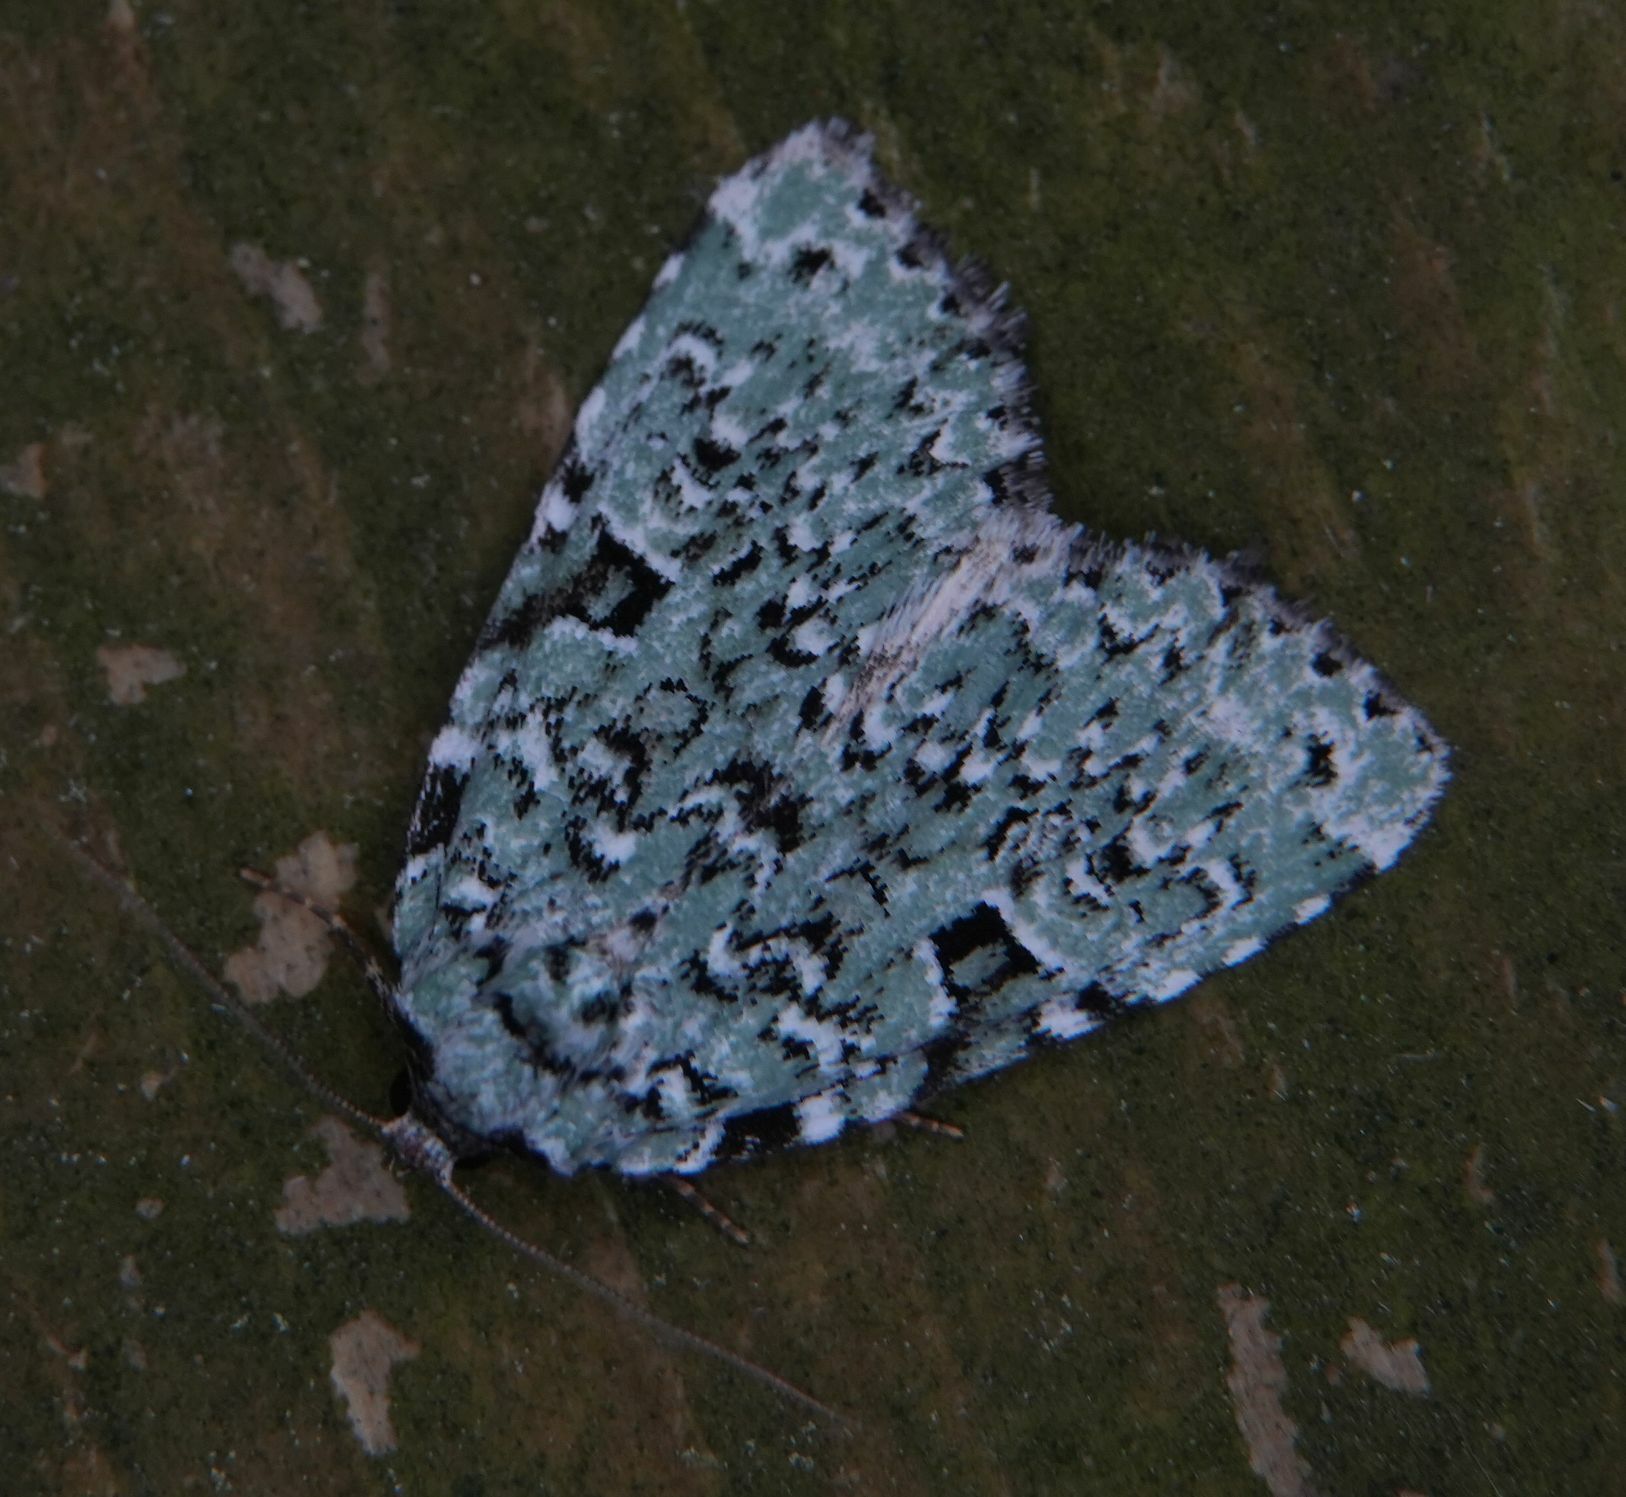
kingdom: Animalia
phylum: Arthropoda
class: Insecta
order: Lepidoptera
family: Noctuidae
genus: Leuconycta
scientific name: Leuconycta diphteroides
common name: Green leuconycta moth
